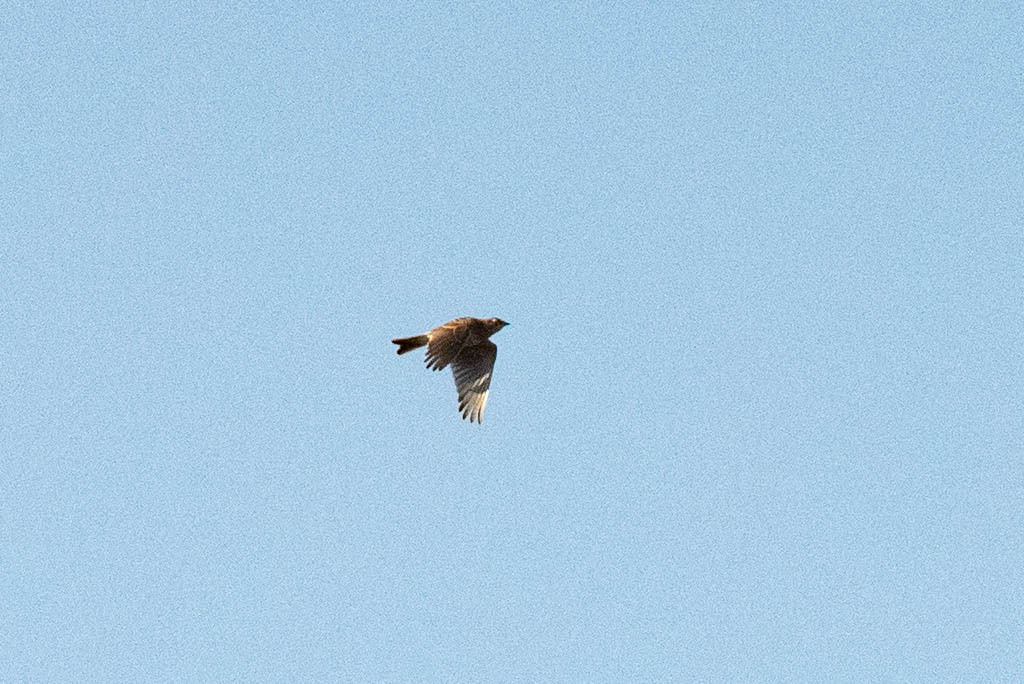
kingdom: Animalia
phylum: Chordata
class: Aves
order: Passeriformes
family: Alaudidae
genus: Alauda
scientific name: Alauda arvensis
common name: Eurasian skylark
